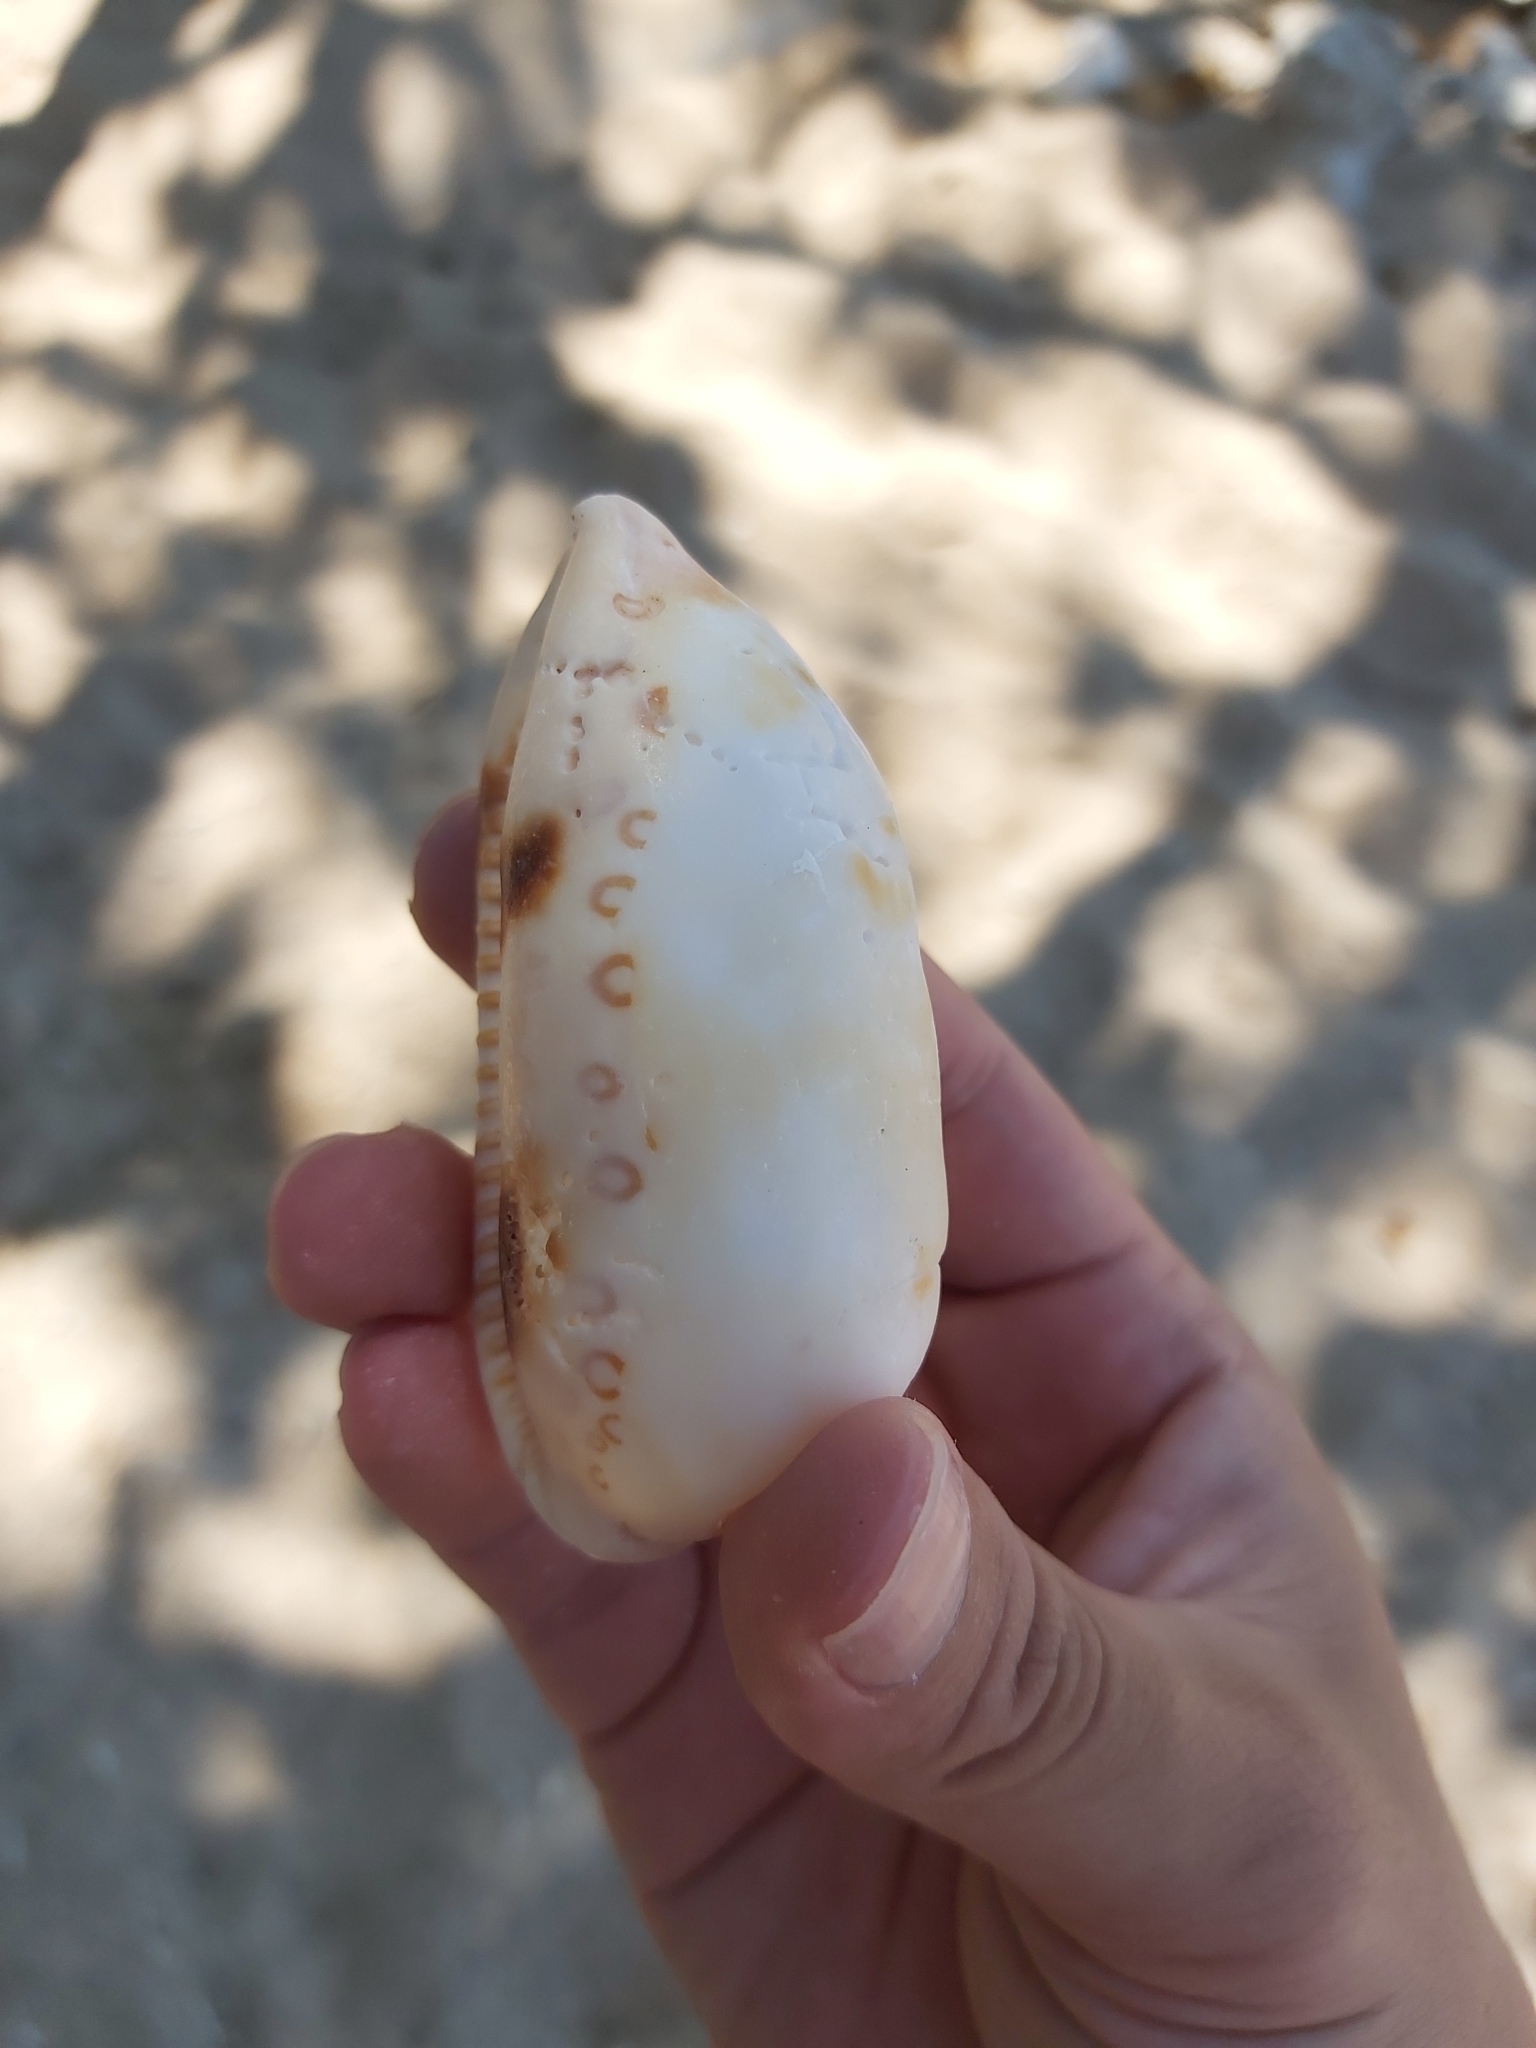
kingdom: Animalia
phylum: Mollusca
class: Gastropoda
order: Littorinimorpha
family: Cypraeidae
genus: Arestorides
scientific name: Arestorides argus
